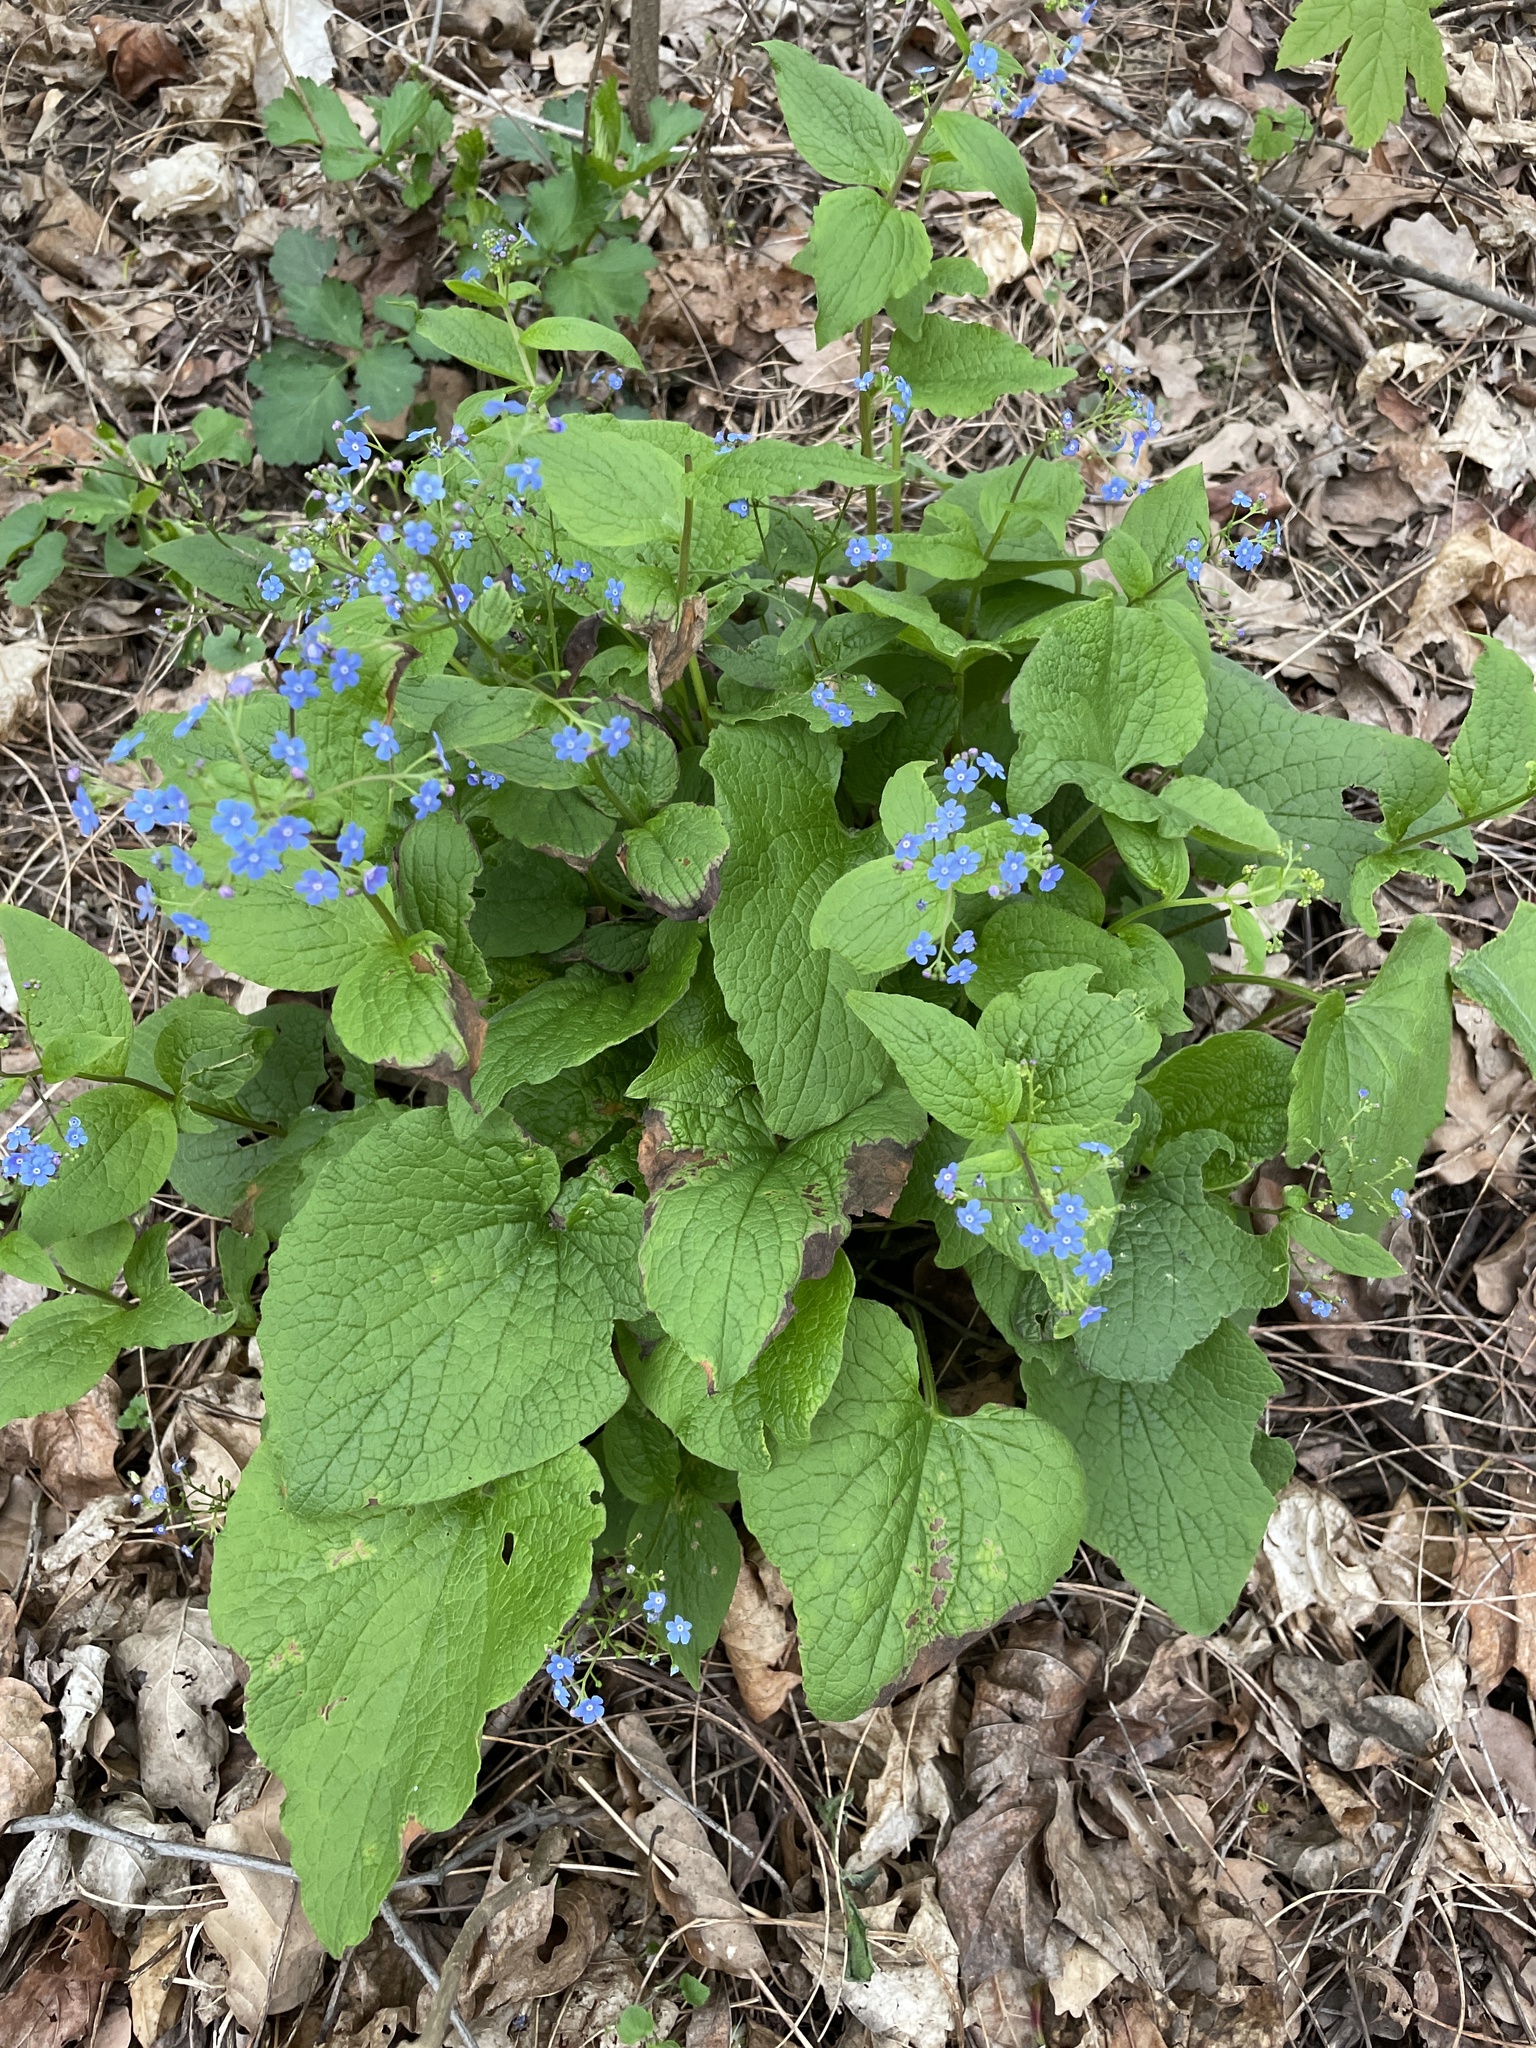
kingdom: Plantae
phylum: Tracheophyta
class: Magnoliopsida
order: Boraginales
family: Boraginaceae
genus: Brunnera
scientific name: Brunnera macrophylla
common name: Great forget-me-not
